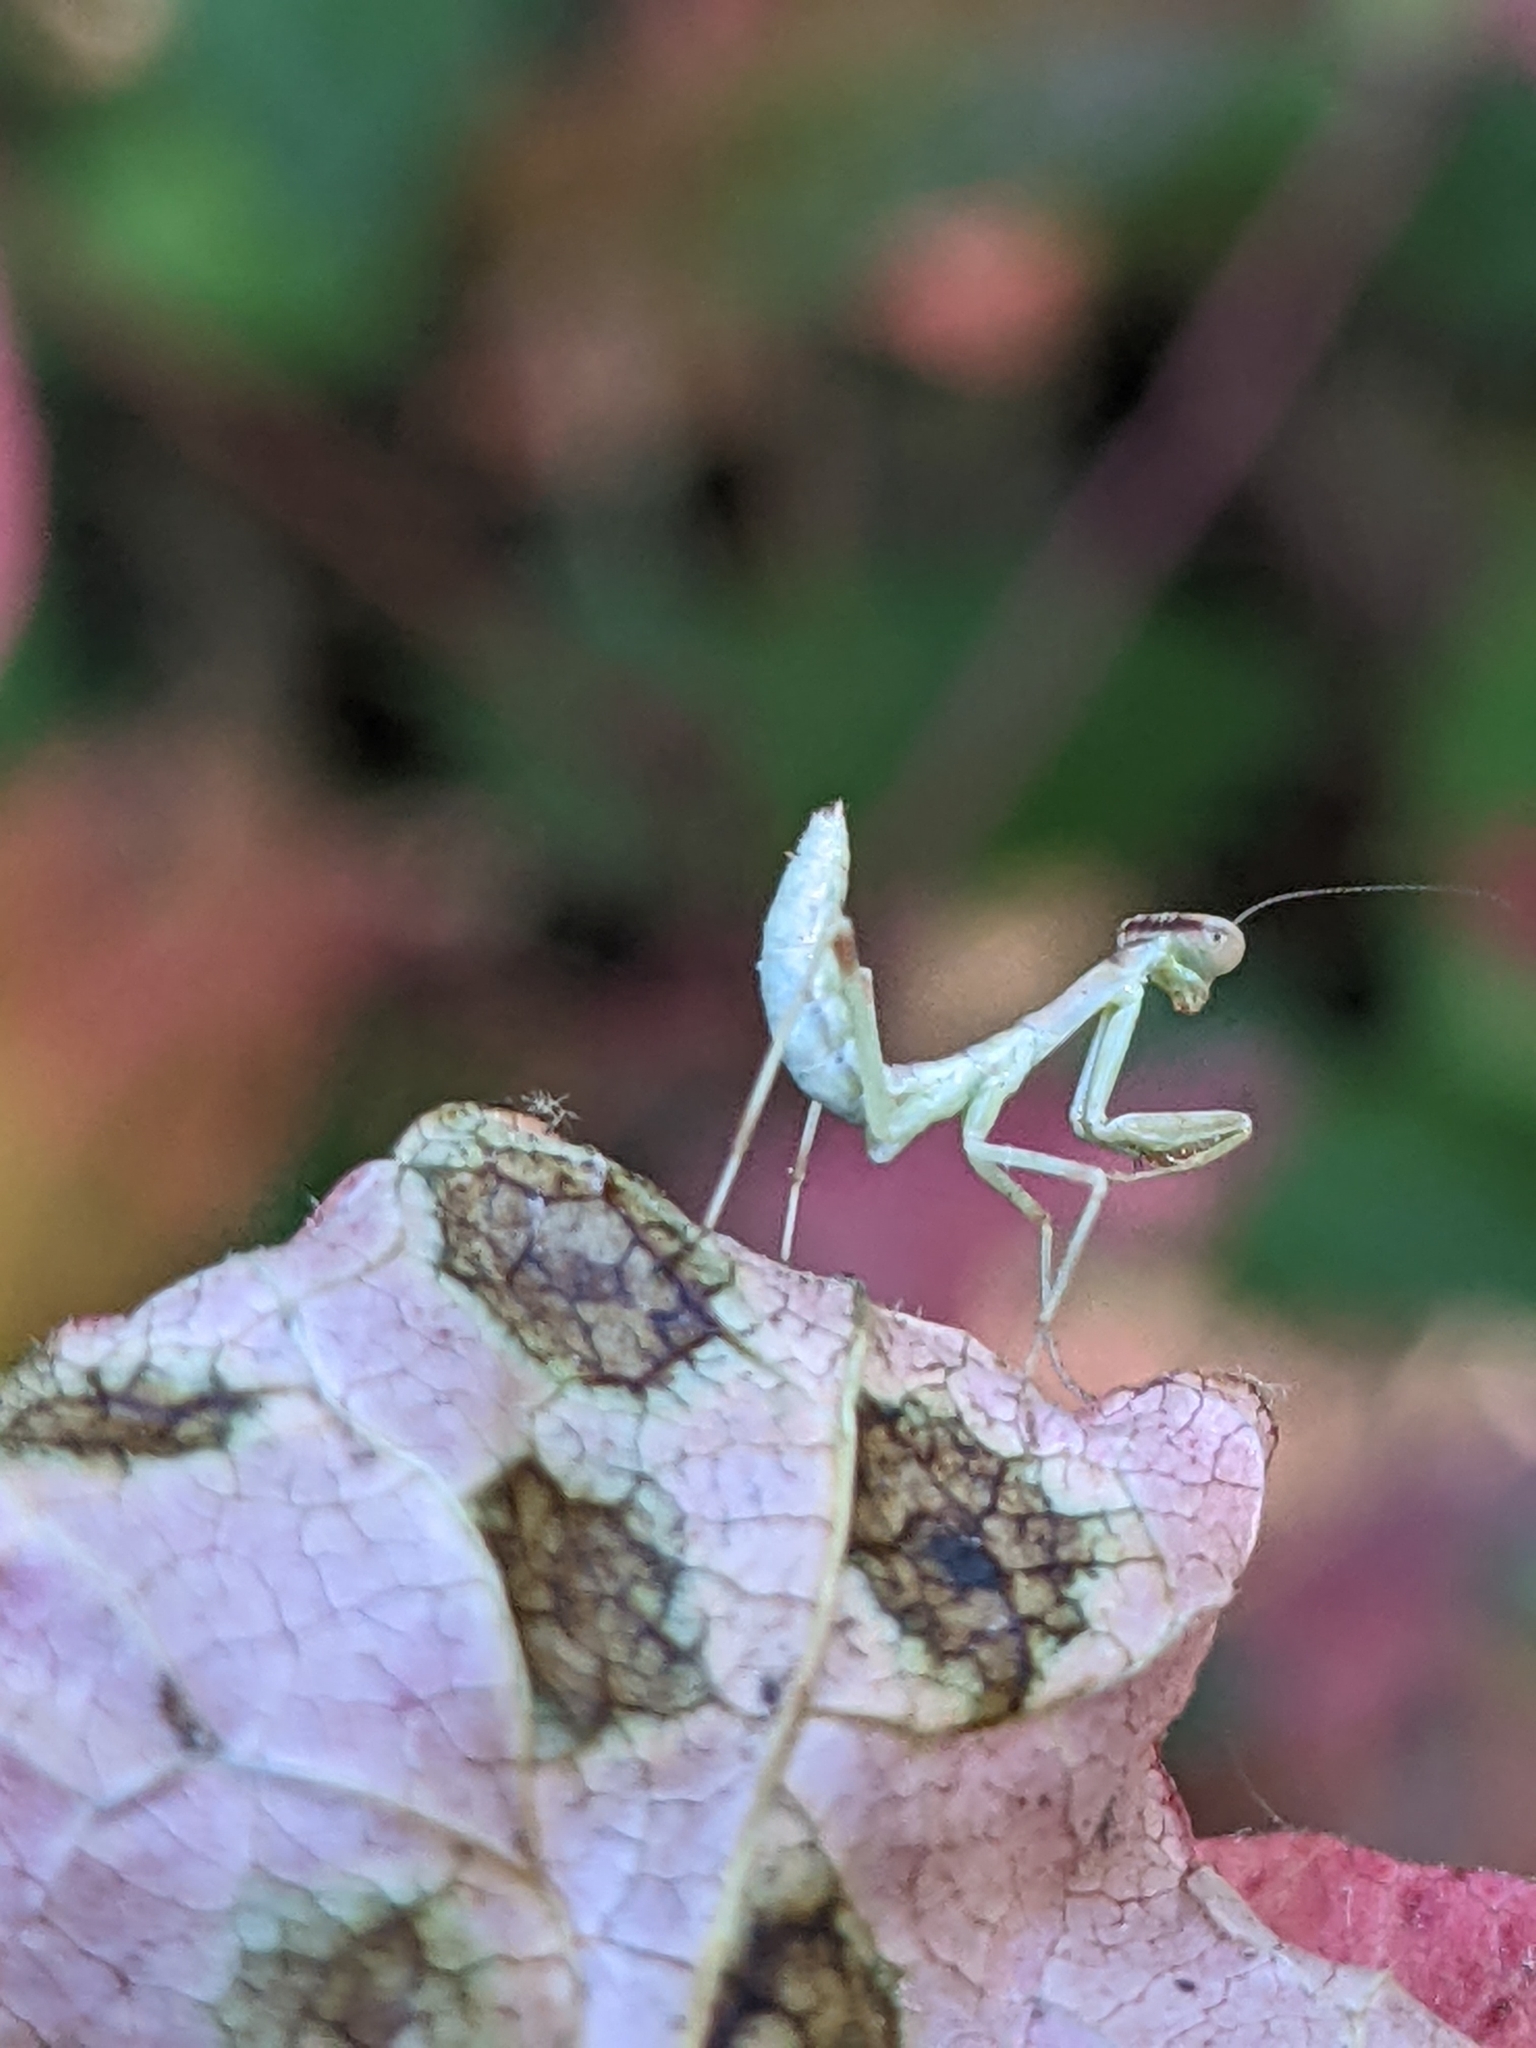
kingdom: Animalia
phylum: Arthropoda
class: Insecta
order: Mantodea
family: Mantidae
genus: Stagmomantis
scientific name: Stagmomantis limbata
